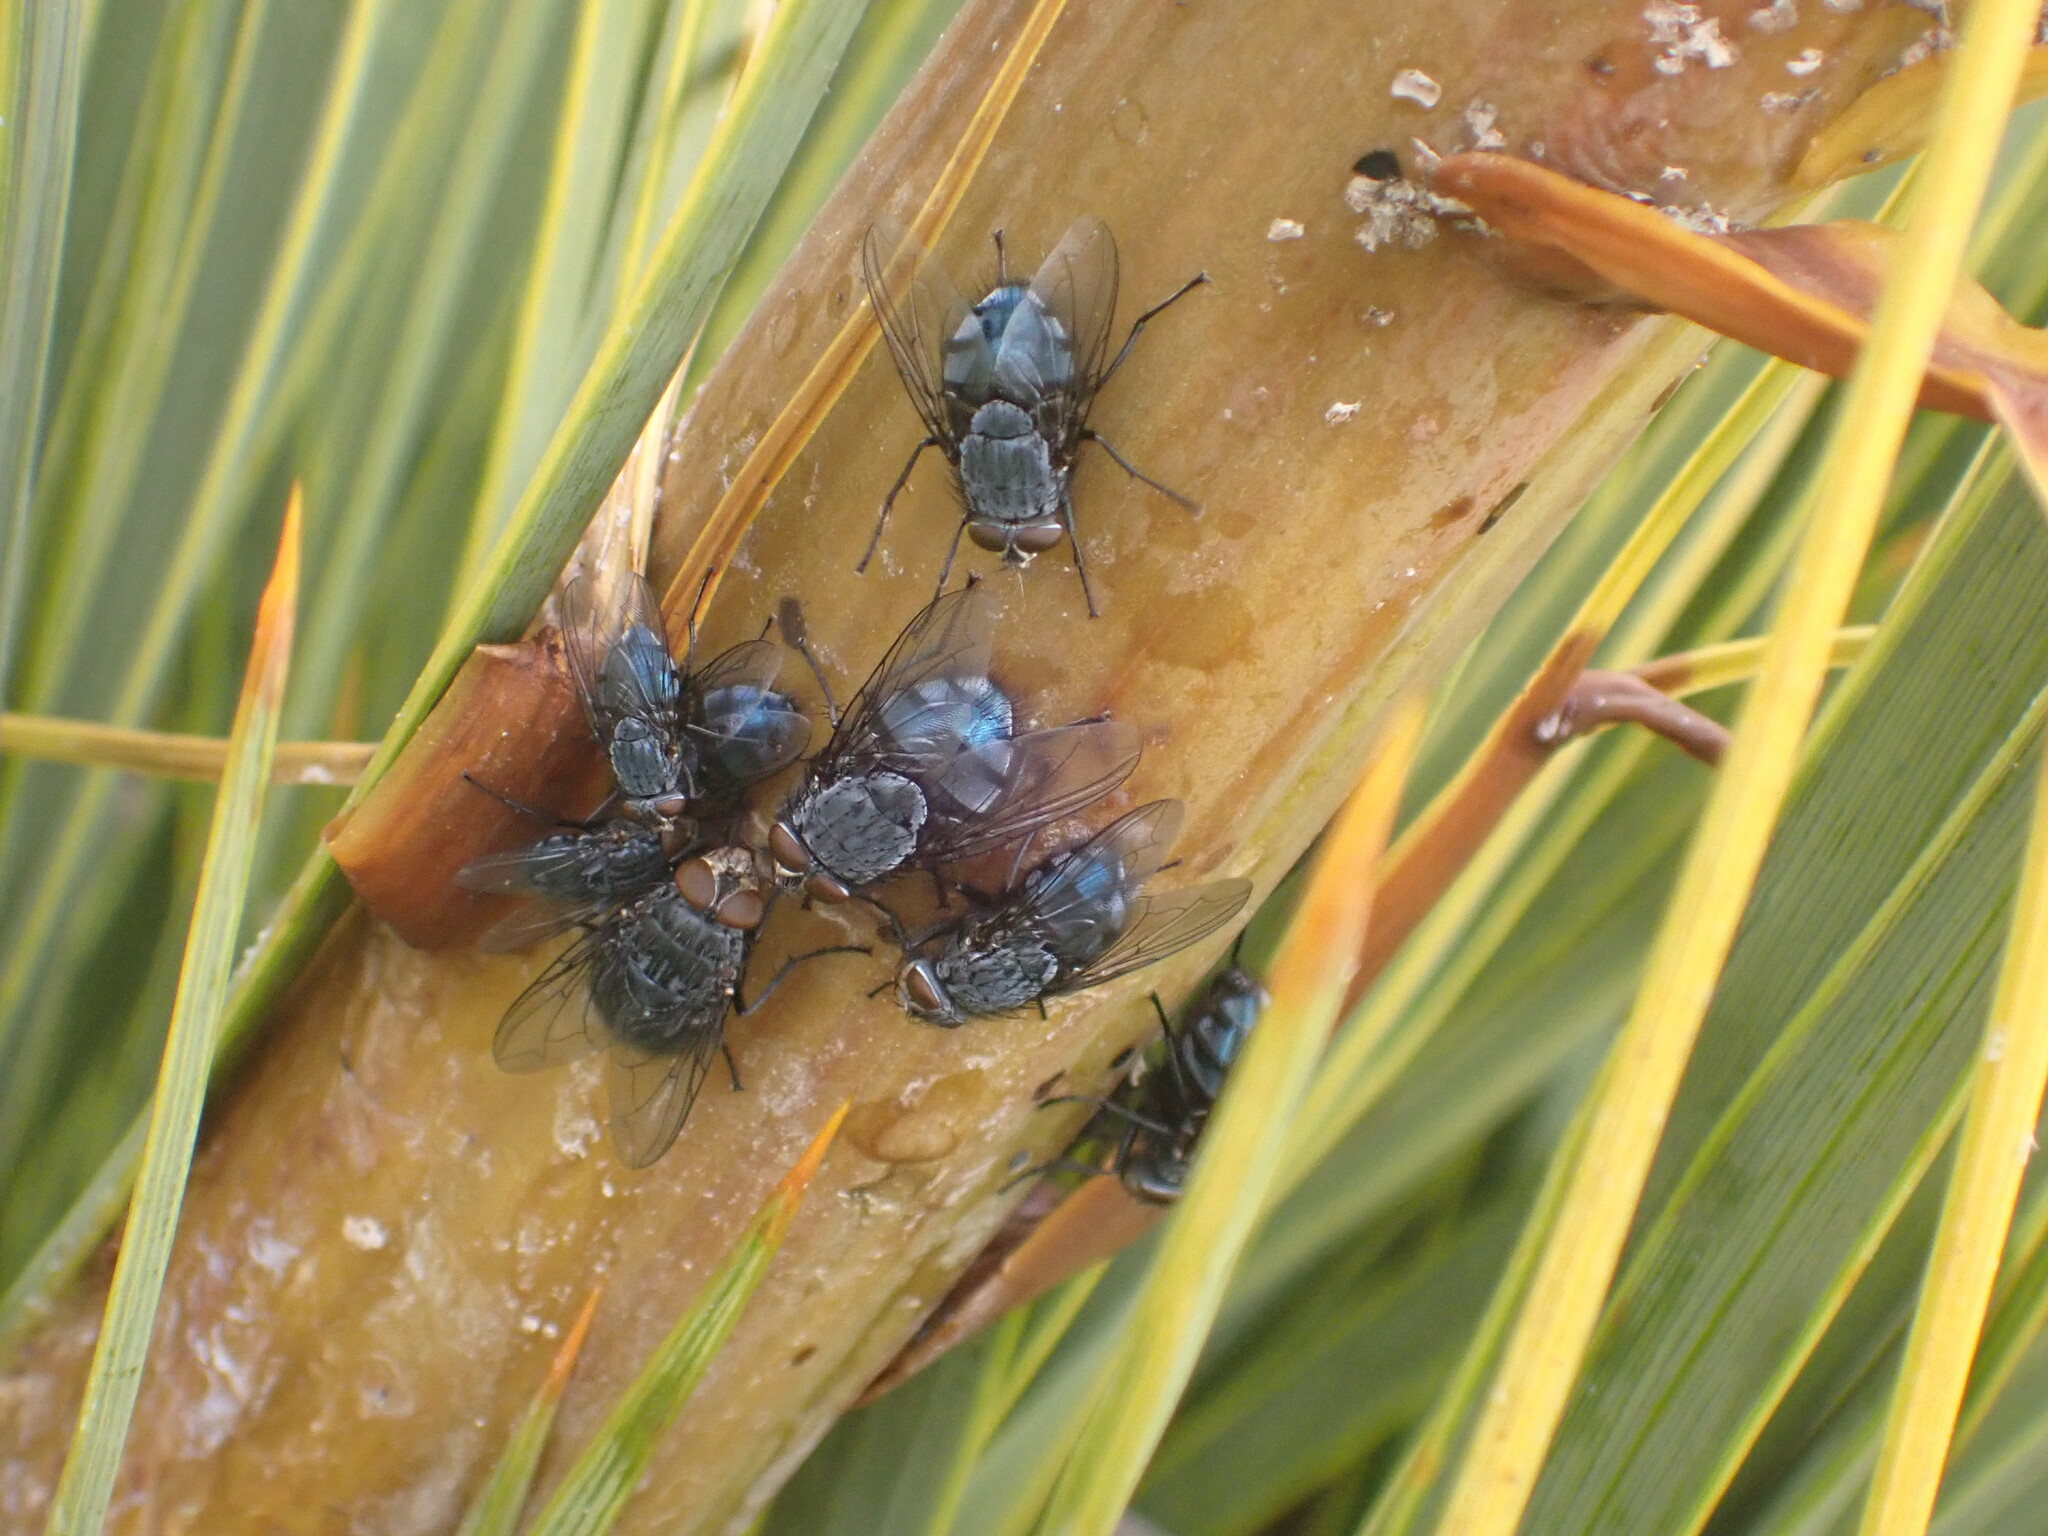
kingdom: Animalia
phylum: Arthropoda
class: Insecta
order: Diptera
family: Calliphoridae
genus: Calliphora
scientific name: Calliphora vicina
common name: Common blow flie
